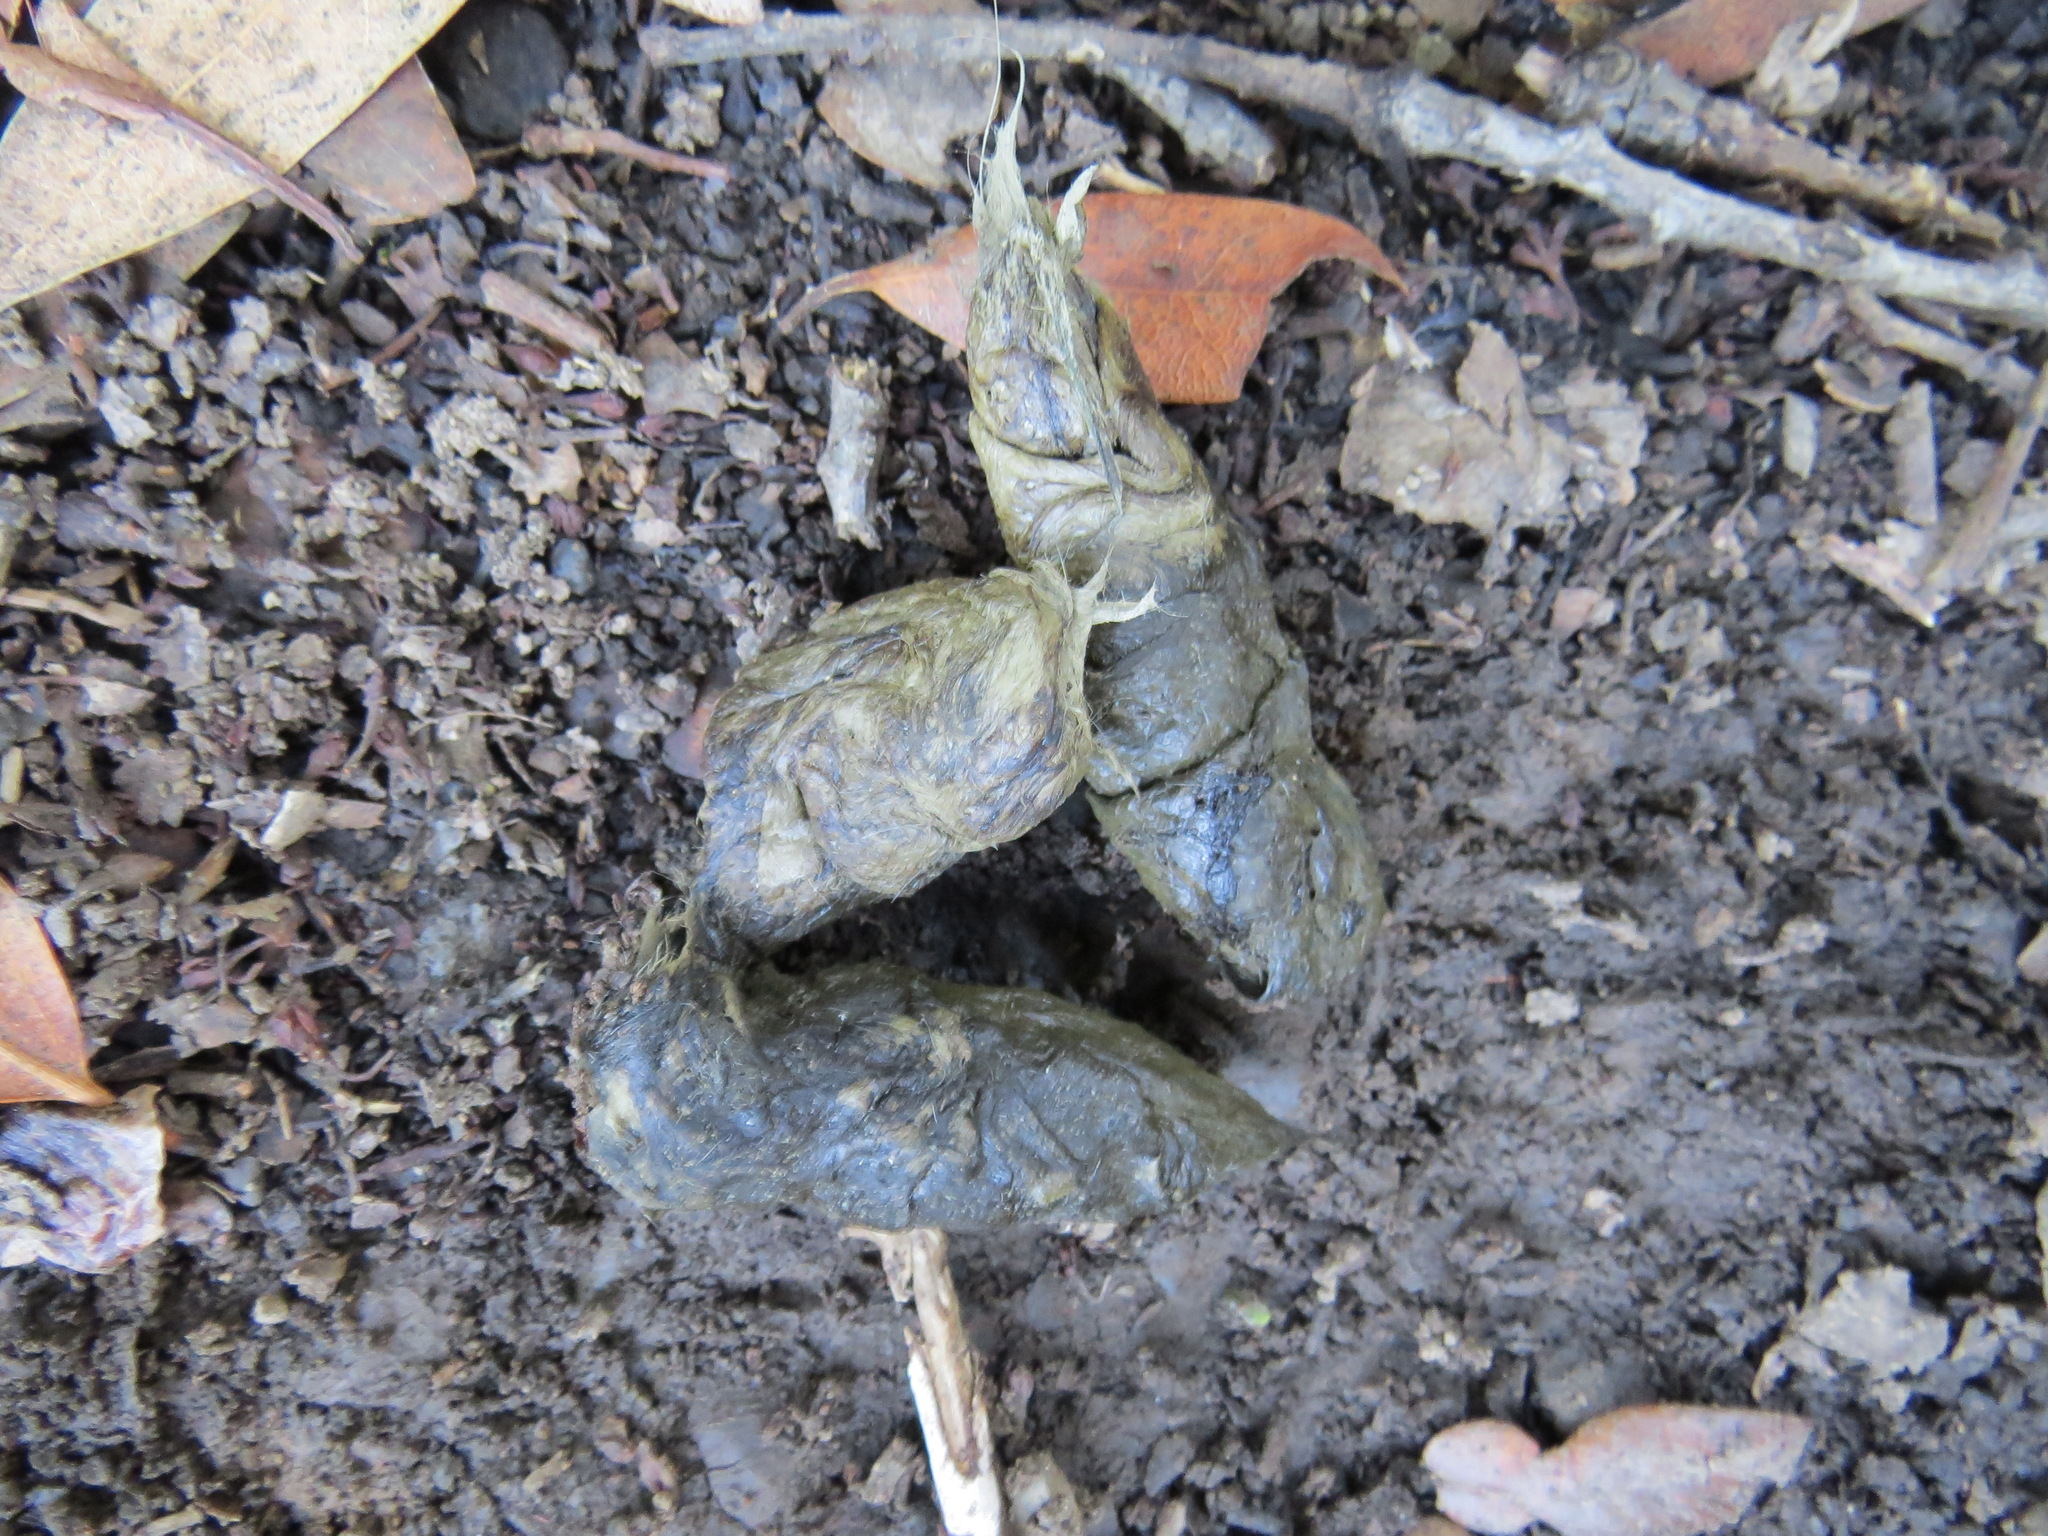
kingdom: Animalia
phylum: Chordata
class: Mammalia
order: Carnivora
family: Felidae
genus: Lynx
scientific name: Lynx rufus
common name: Bobcat
